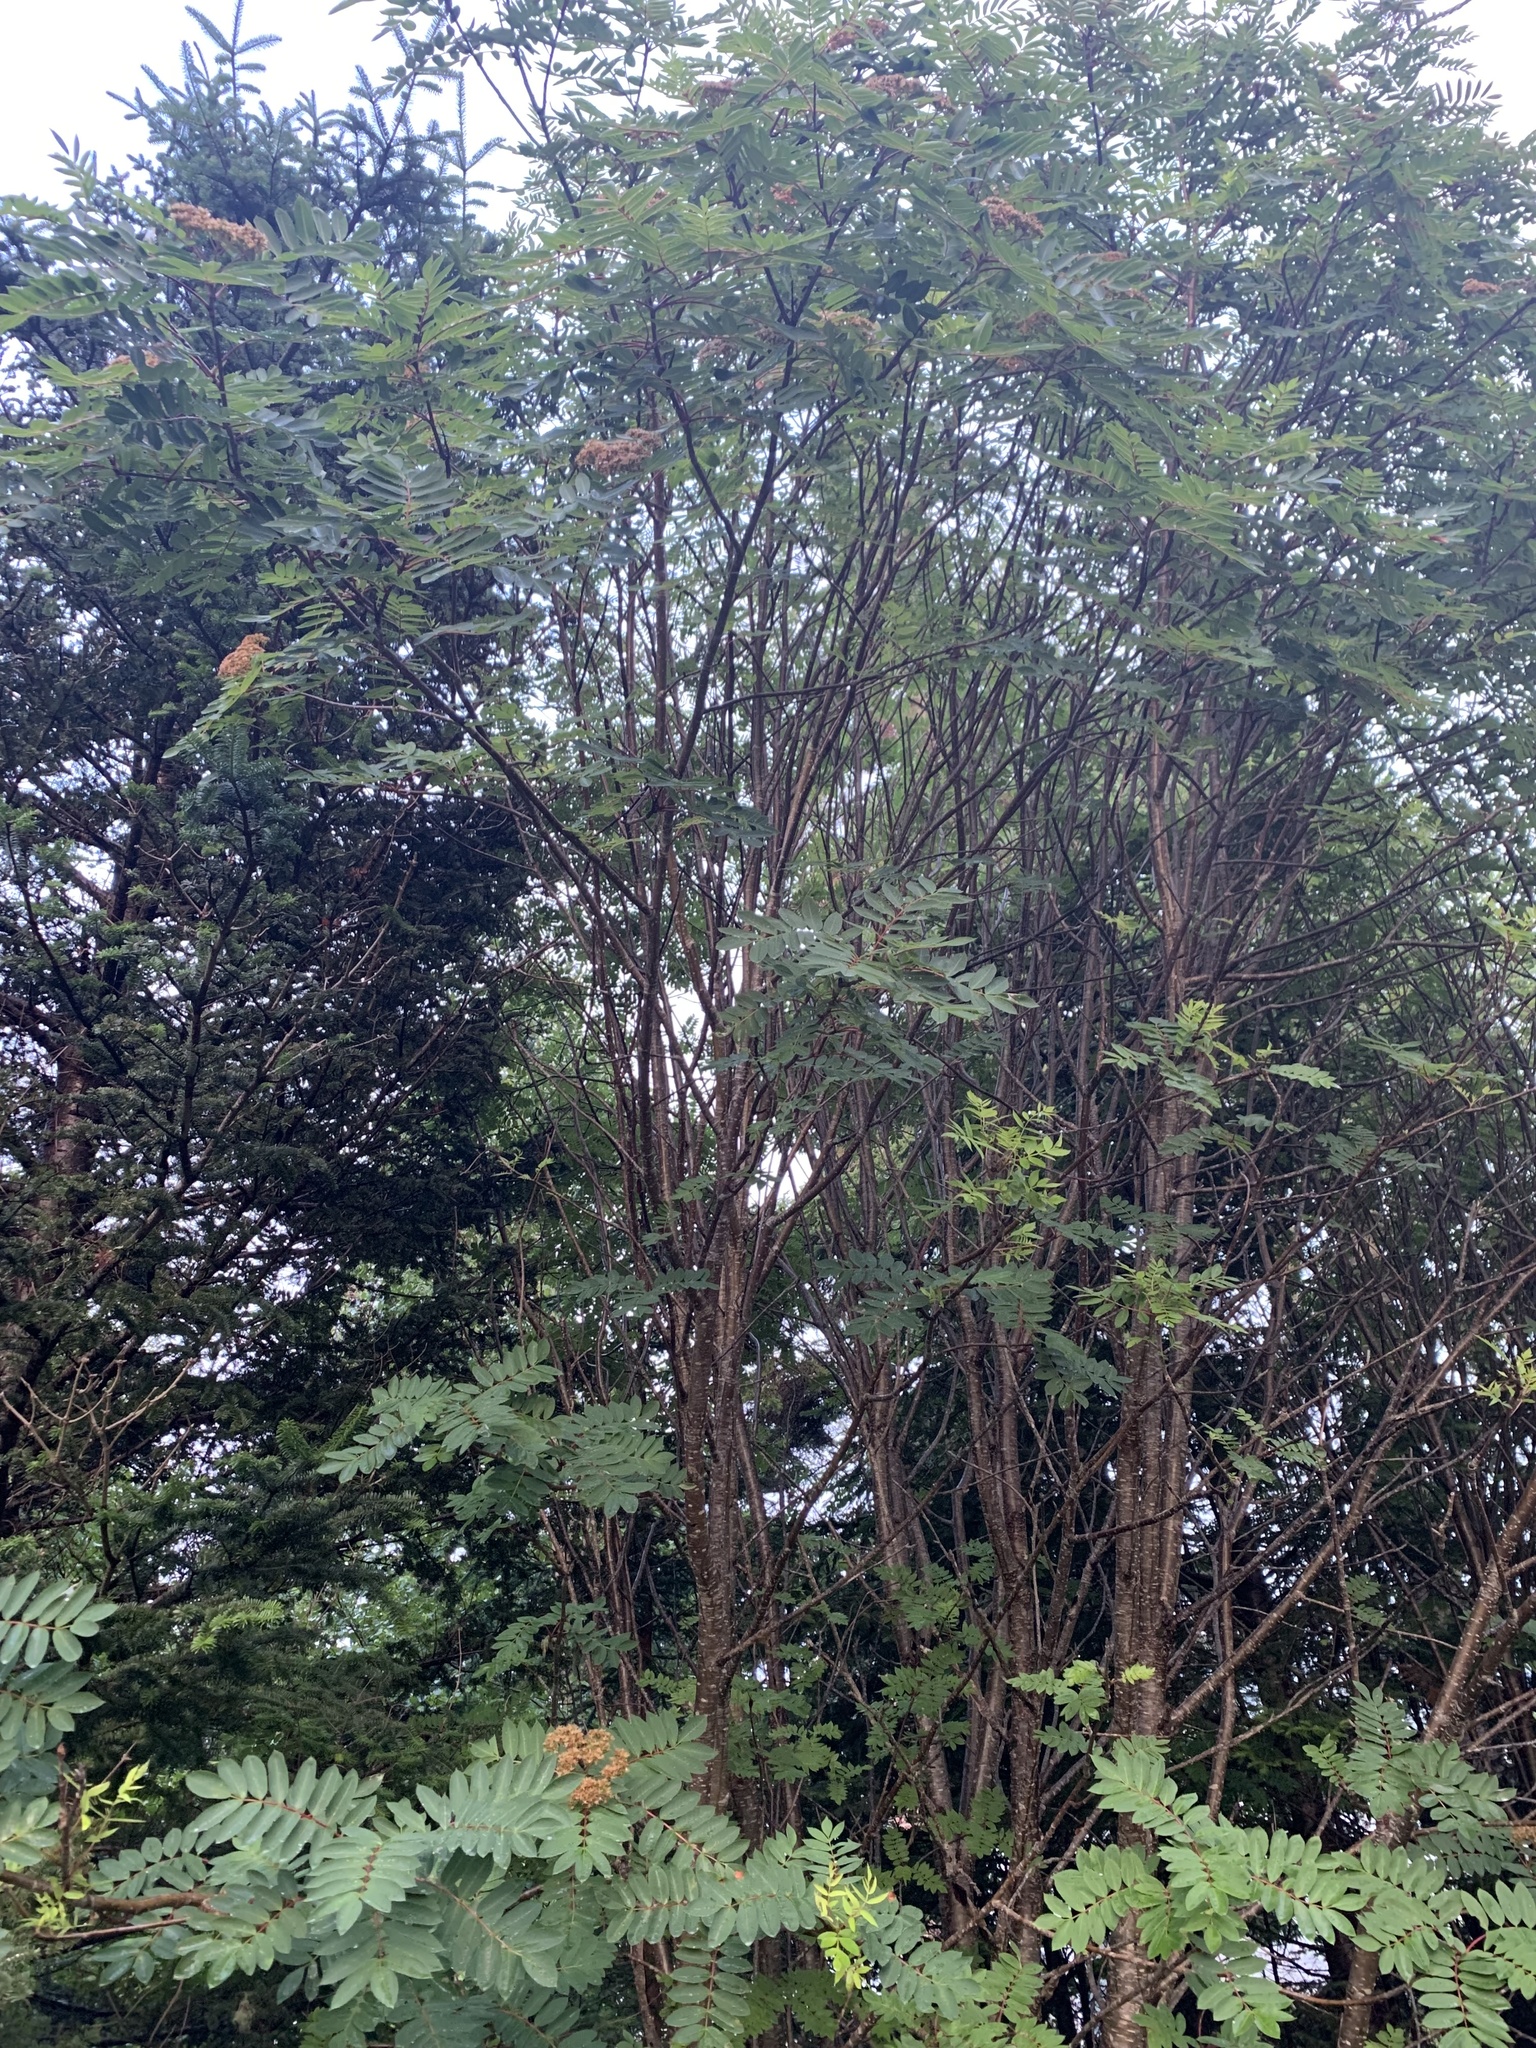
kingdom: Plantae
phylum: Tracheophyta
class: Magnoliopsida
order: Rosales
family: Rosaceae
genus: Sorbus
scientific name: Sorbus americana
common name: American mountain-ash
